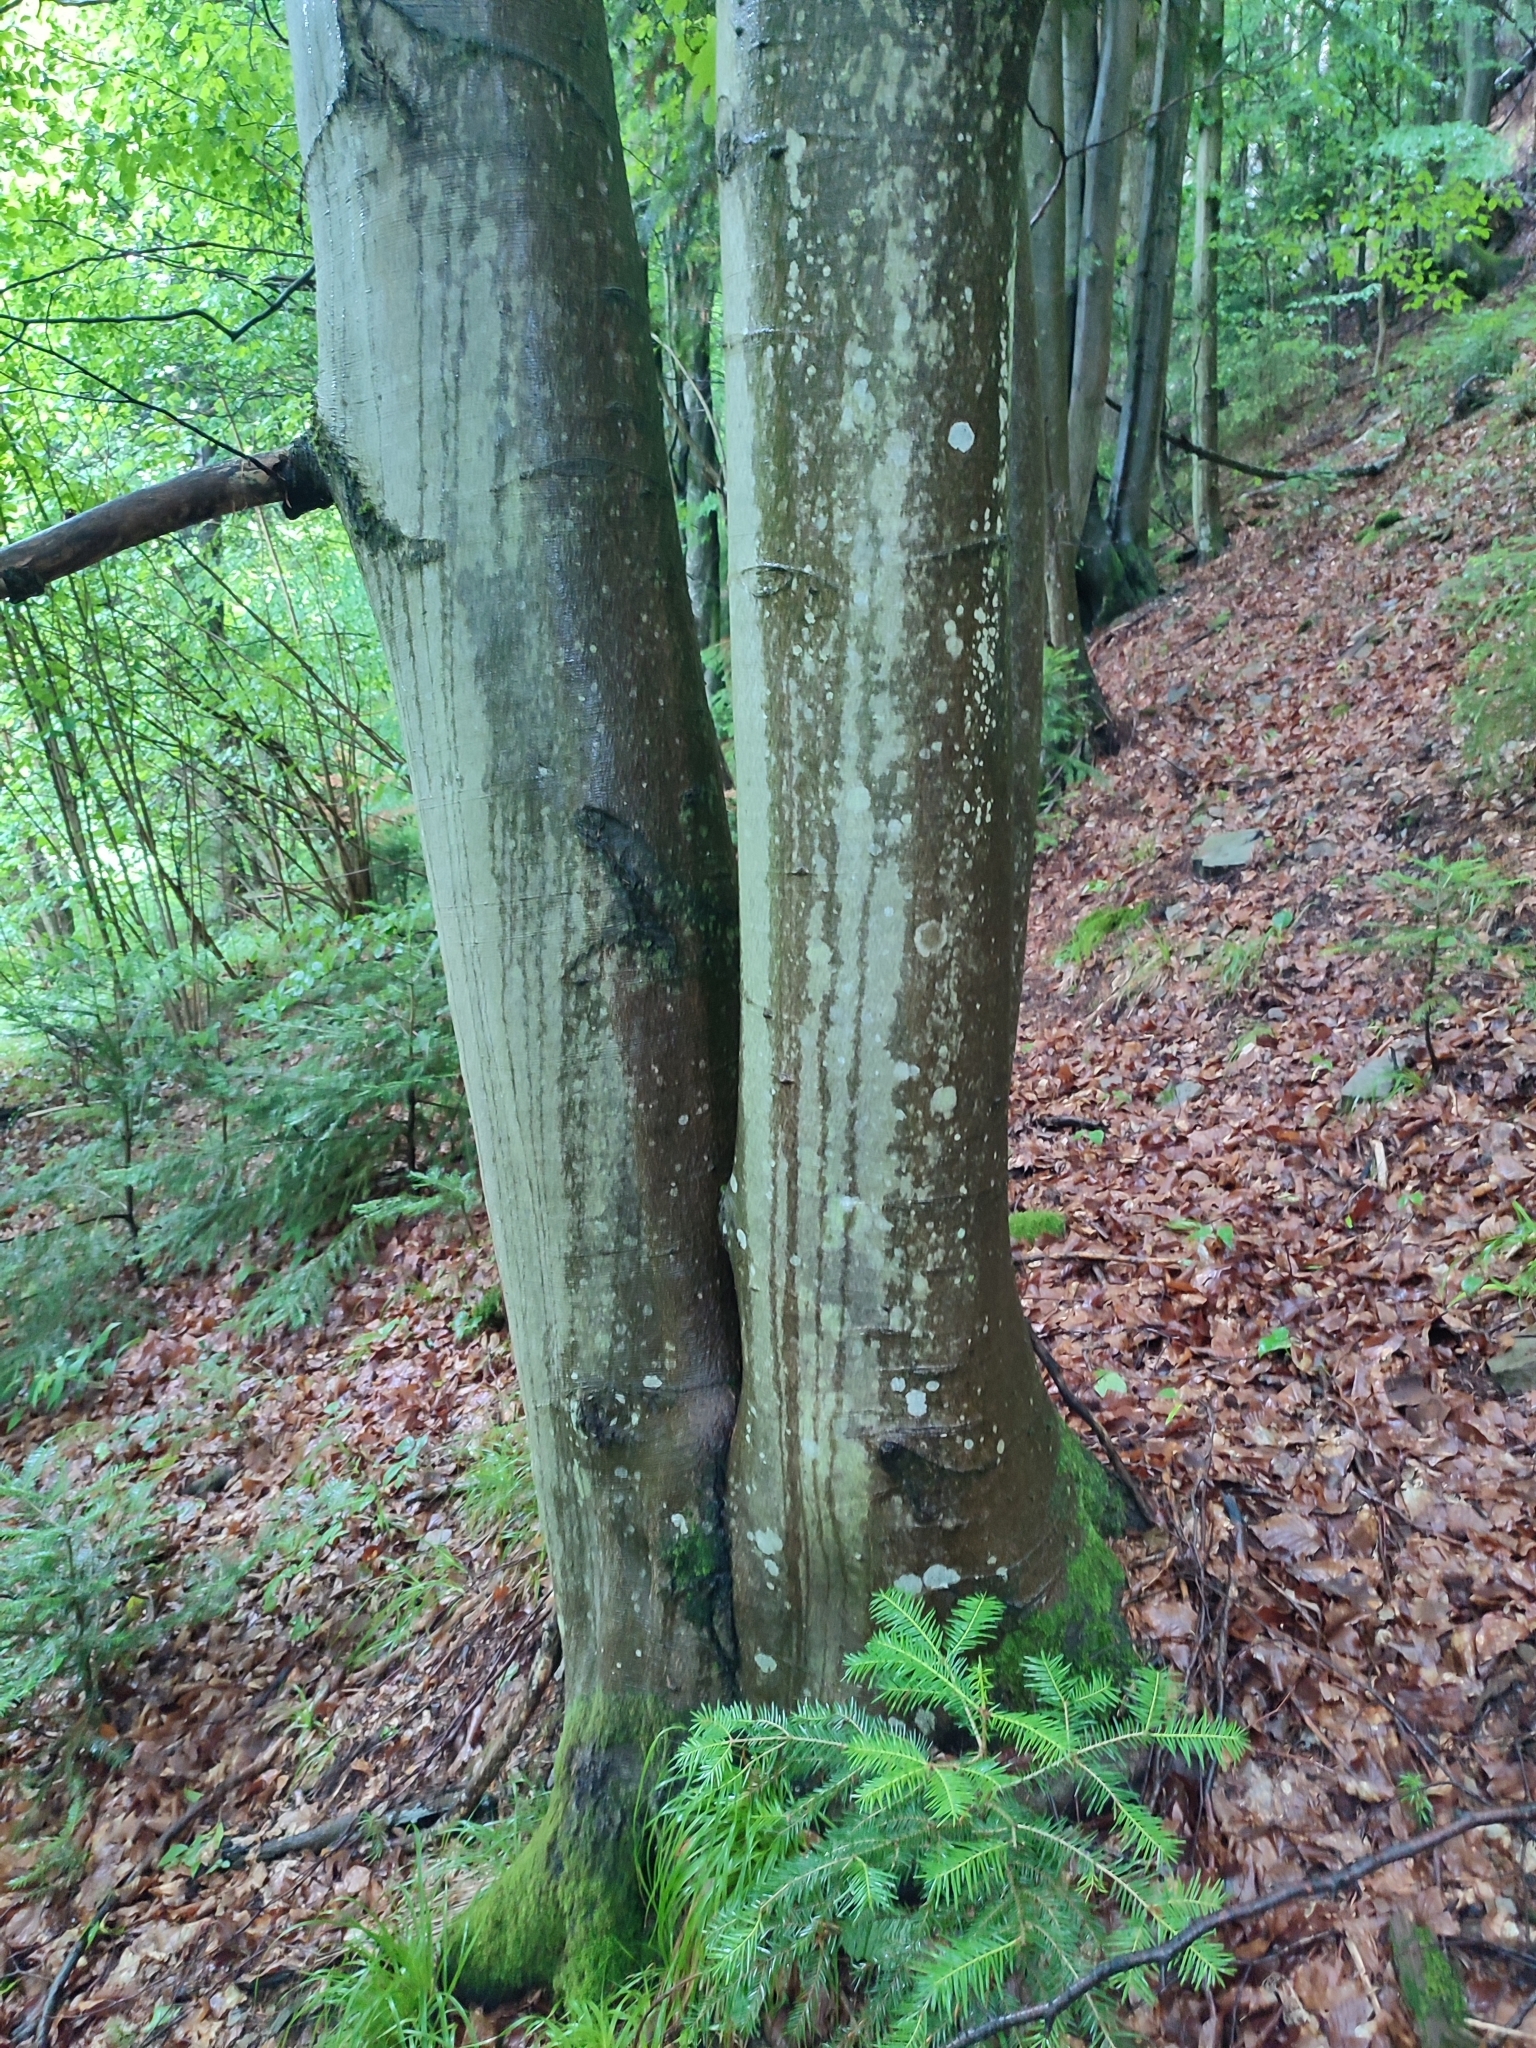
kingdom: Plantae
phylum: Tracheophyta
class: Magnoliopsida
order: Fagales
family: Fagaceae
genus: Fagus
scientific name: Fagus sylvatica
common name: Beech
